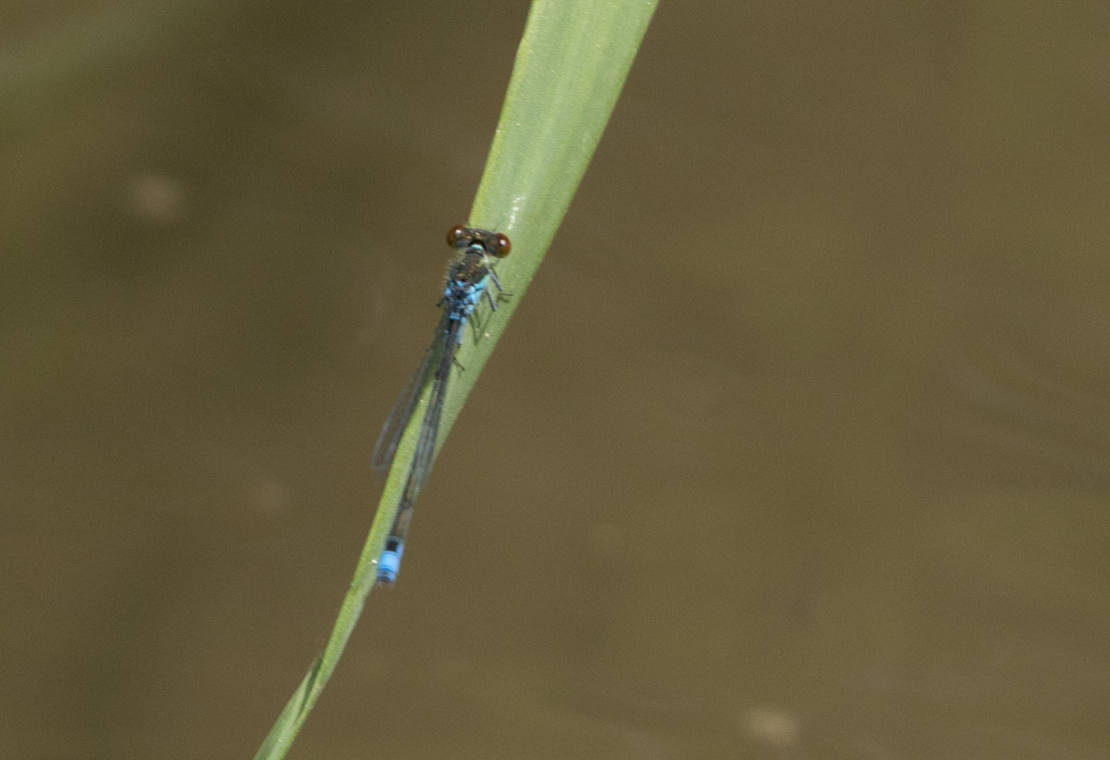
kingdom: Animalia
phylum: Arthropoda
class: Insecta
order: Odonata
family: Coenagrionidae
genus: Erythromma
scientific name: Erythromma viridulum
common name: Small red-eyed damselfly
